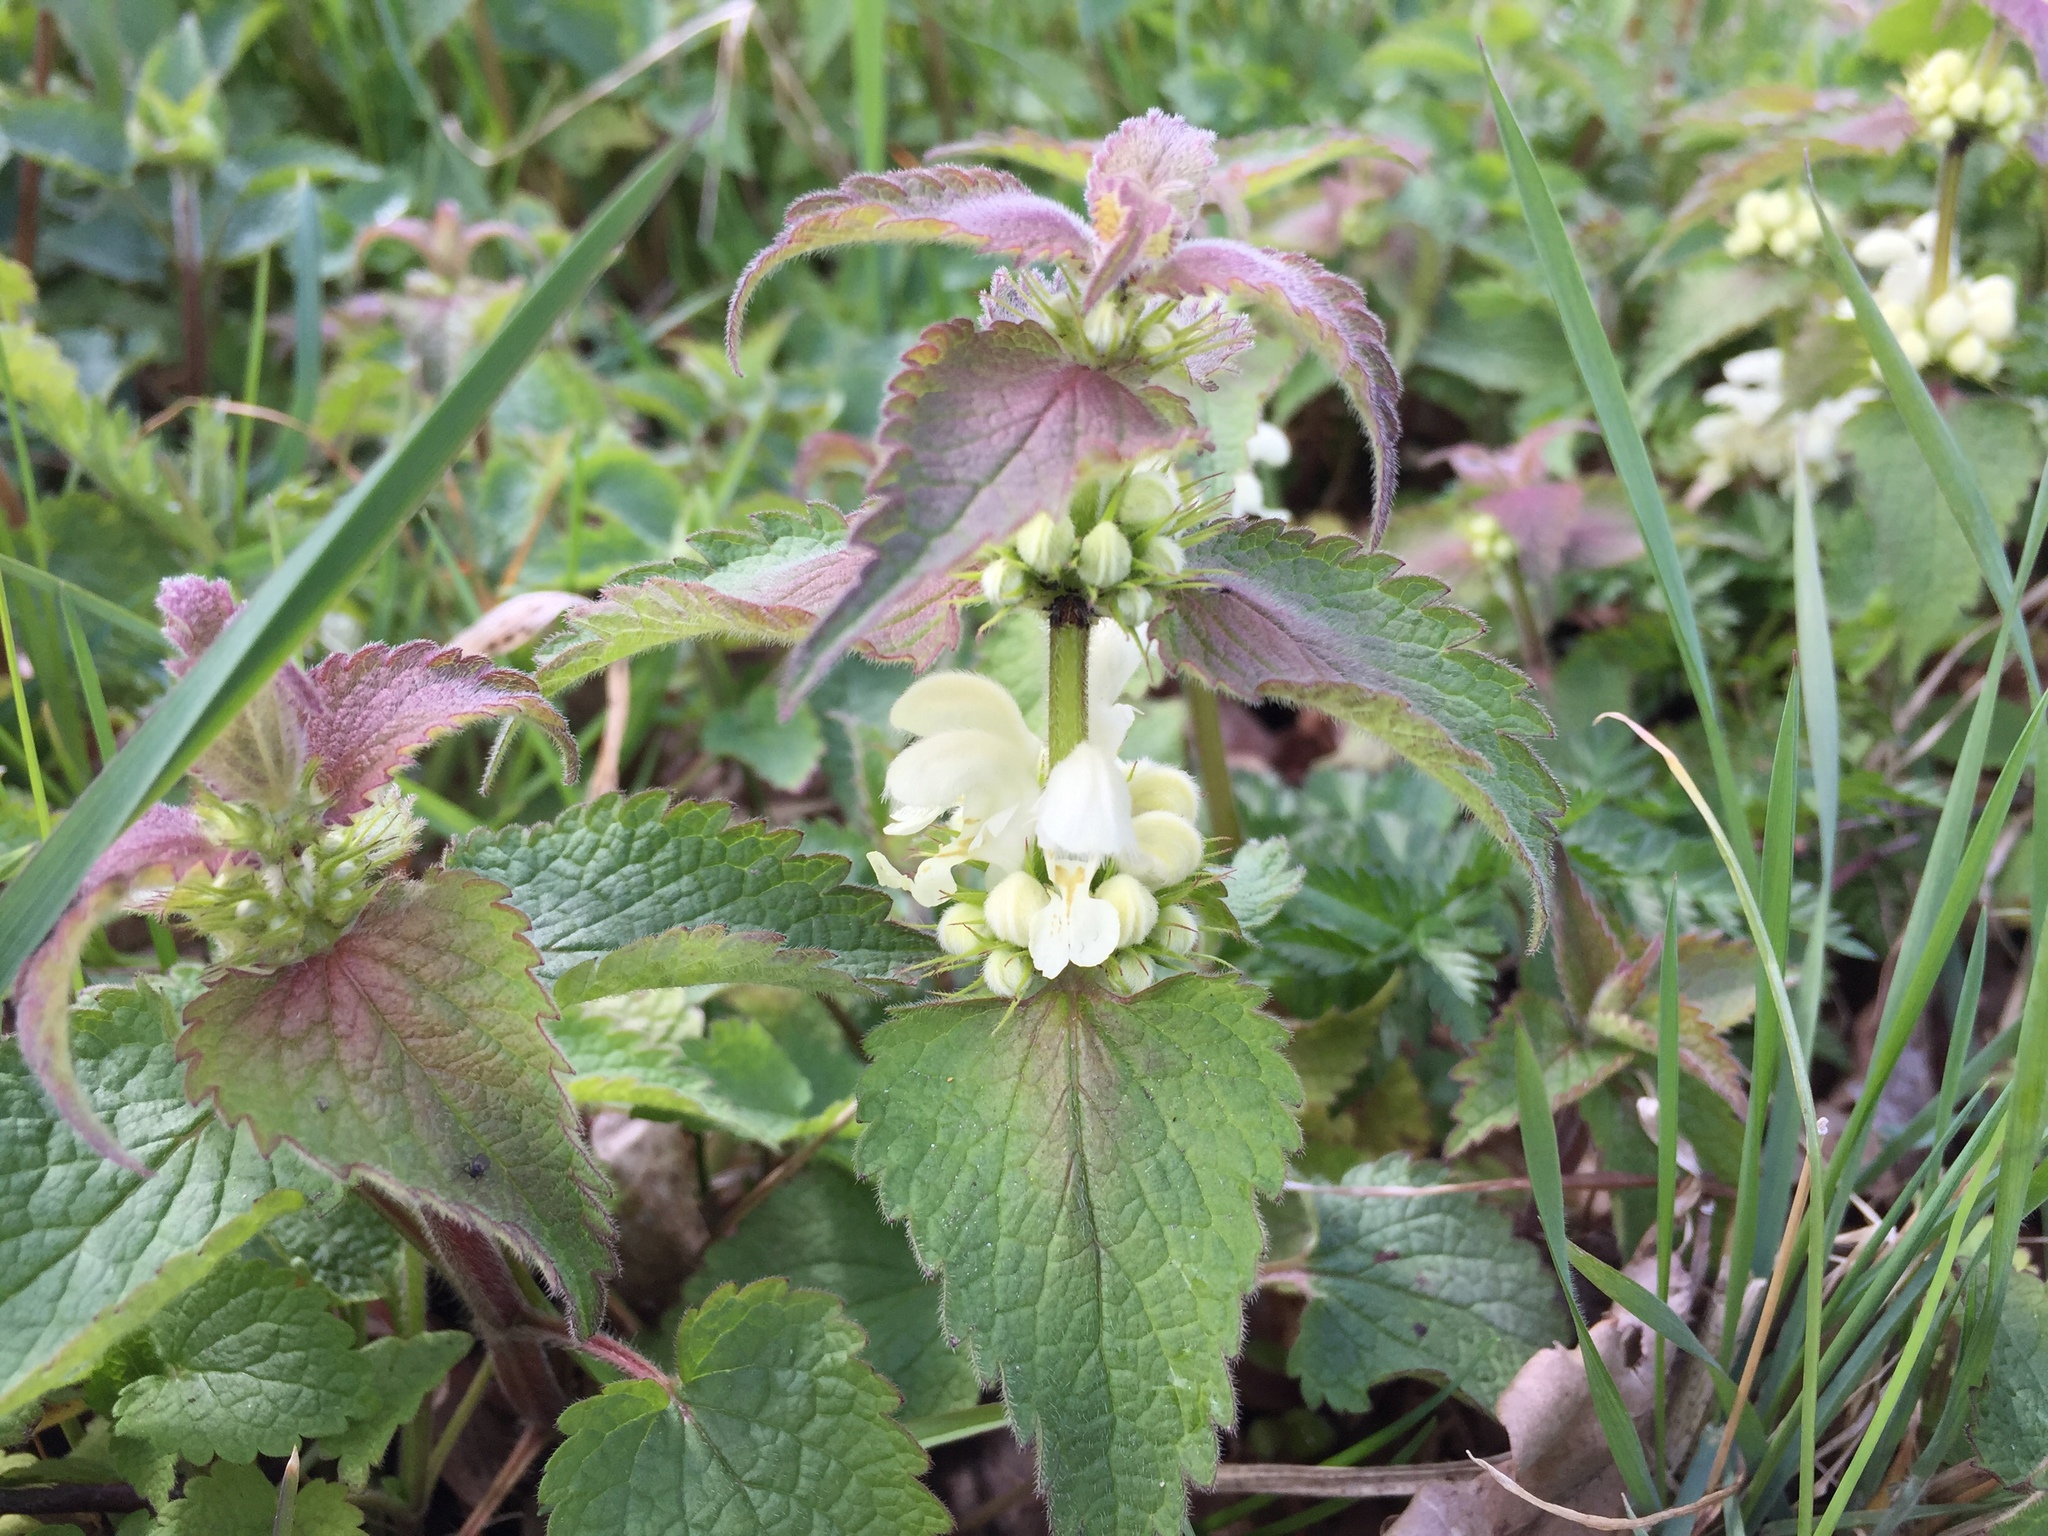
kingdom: Plantae
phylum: Tracheophyta
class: Magnoliopsida
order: Lamiales
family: Lamiaceae
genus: Lamium
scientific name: Lamium album
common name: White dead-nettle
